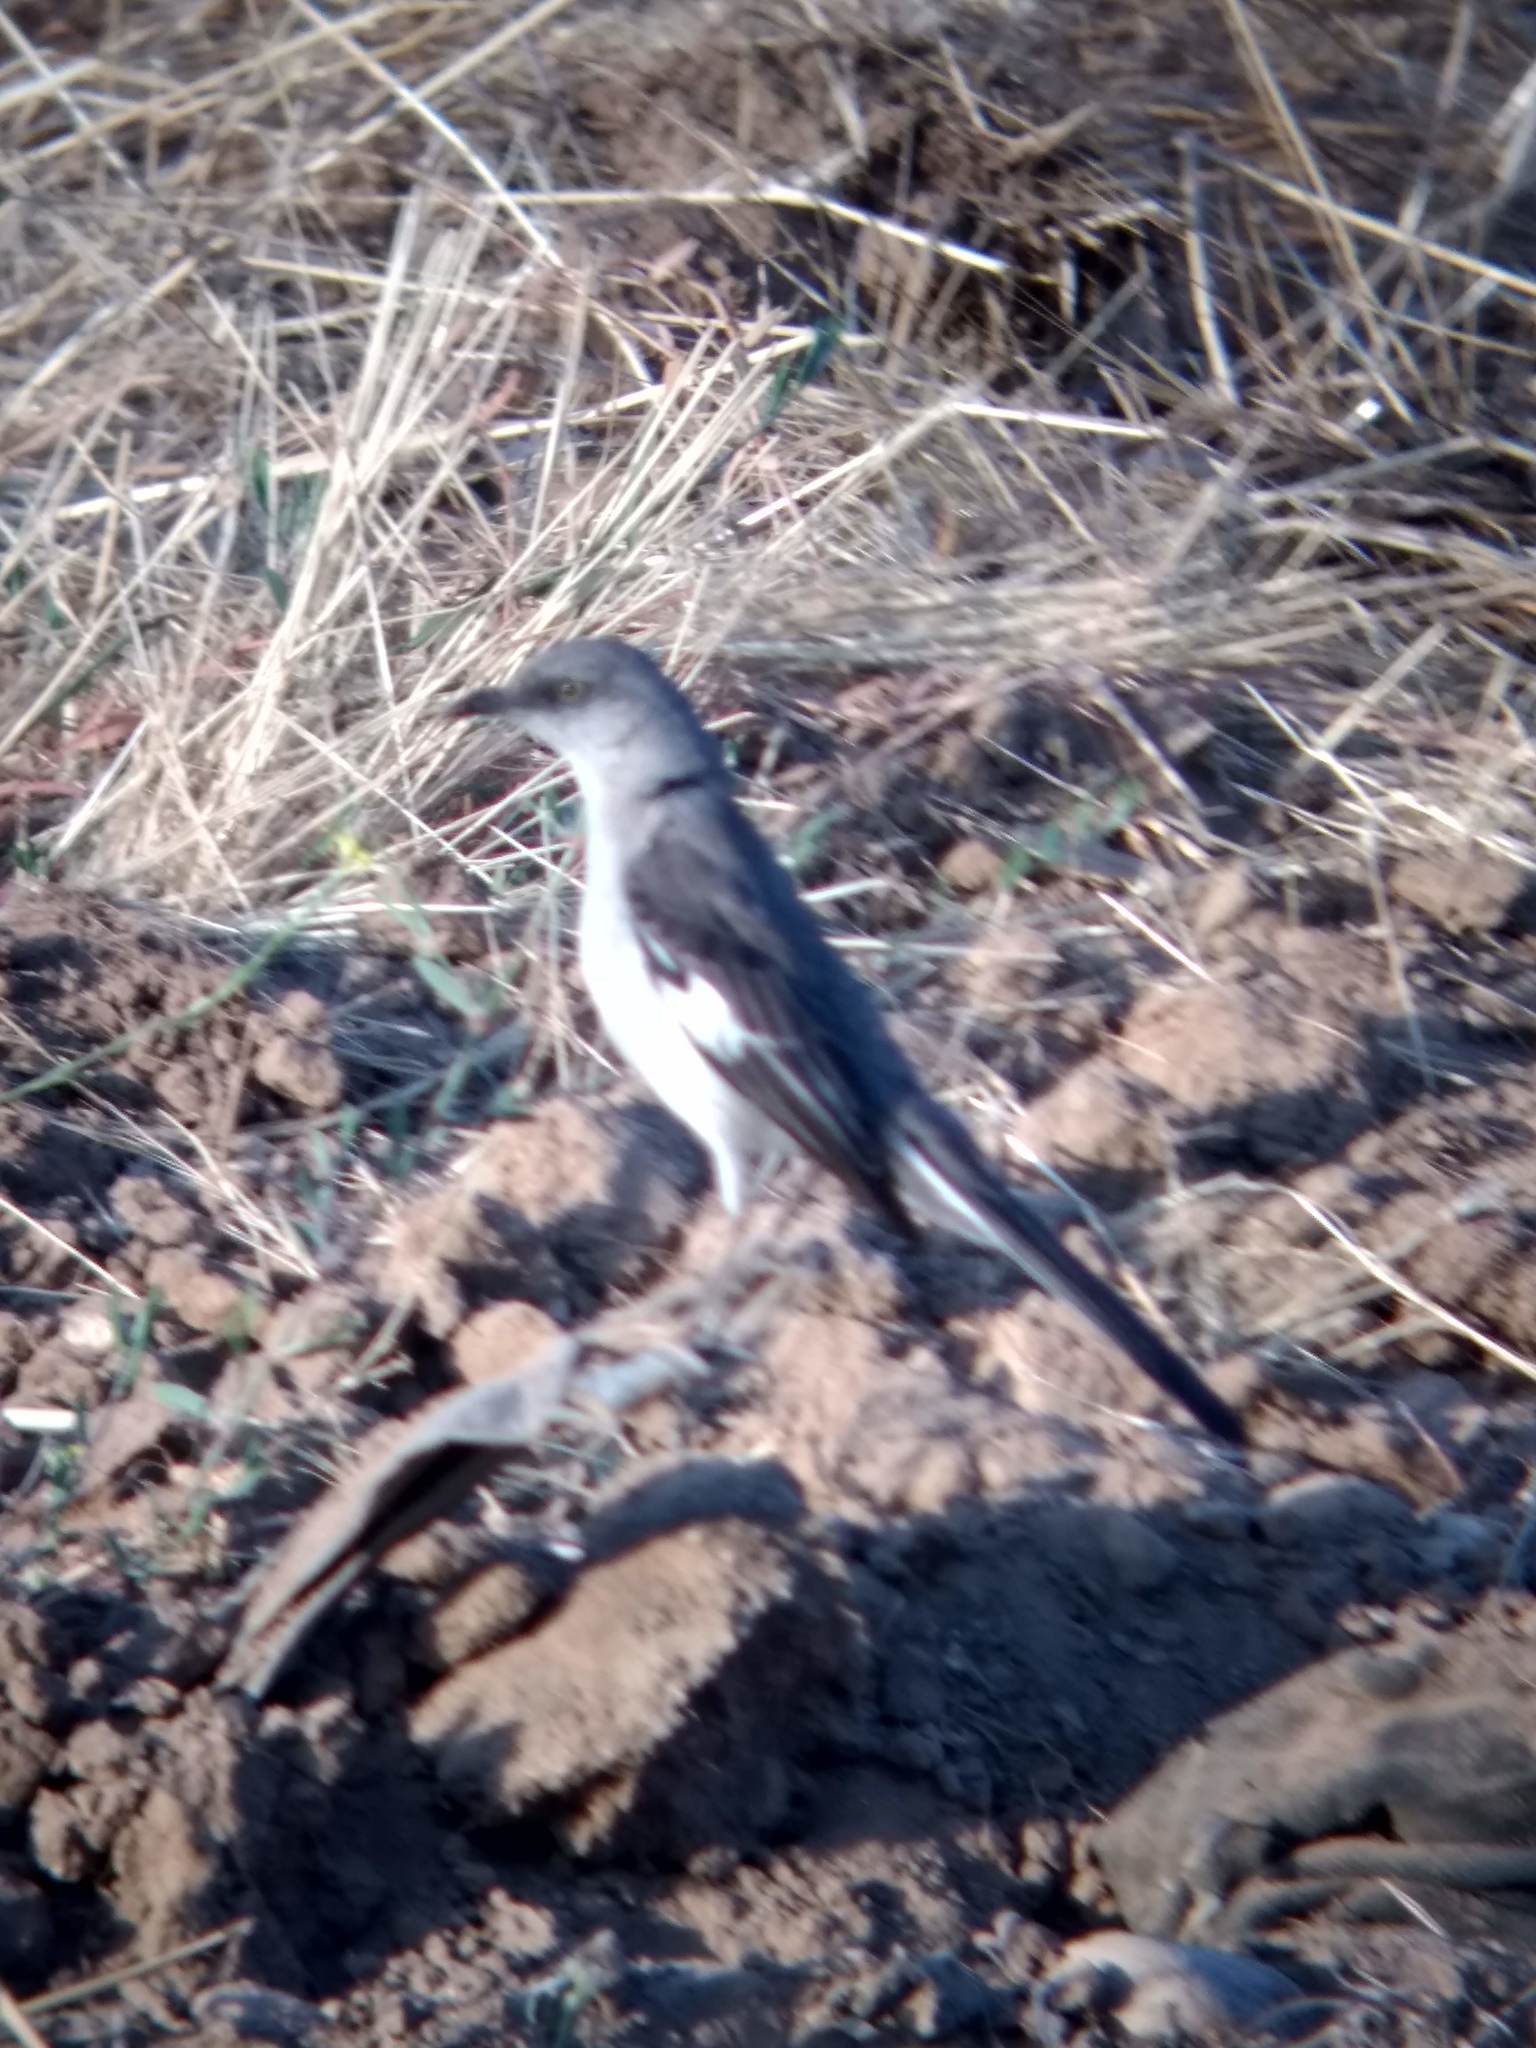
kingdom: Animalia
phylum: Chordata
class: Aves
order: Passeriformes
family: Mimidae
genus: Mimus
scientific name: Mimus polyglottos
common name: Northern mockingbird
